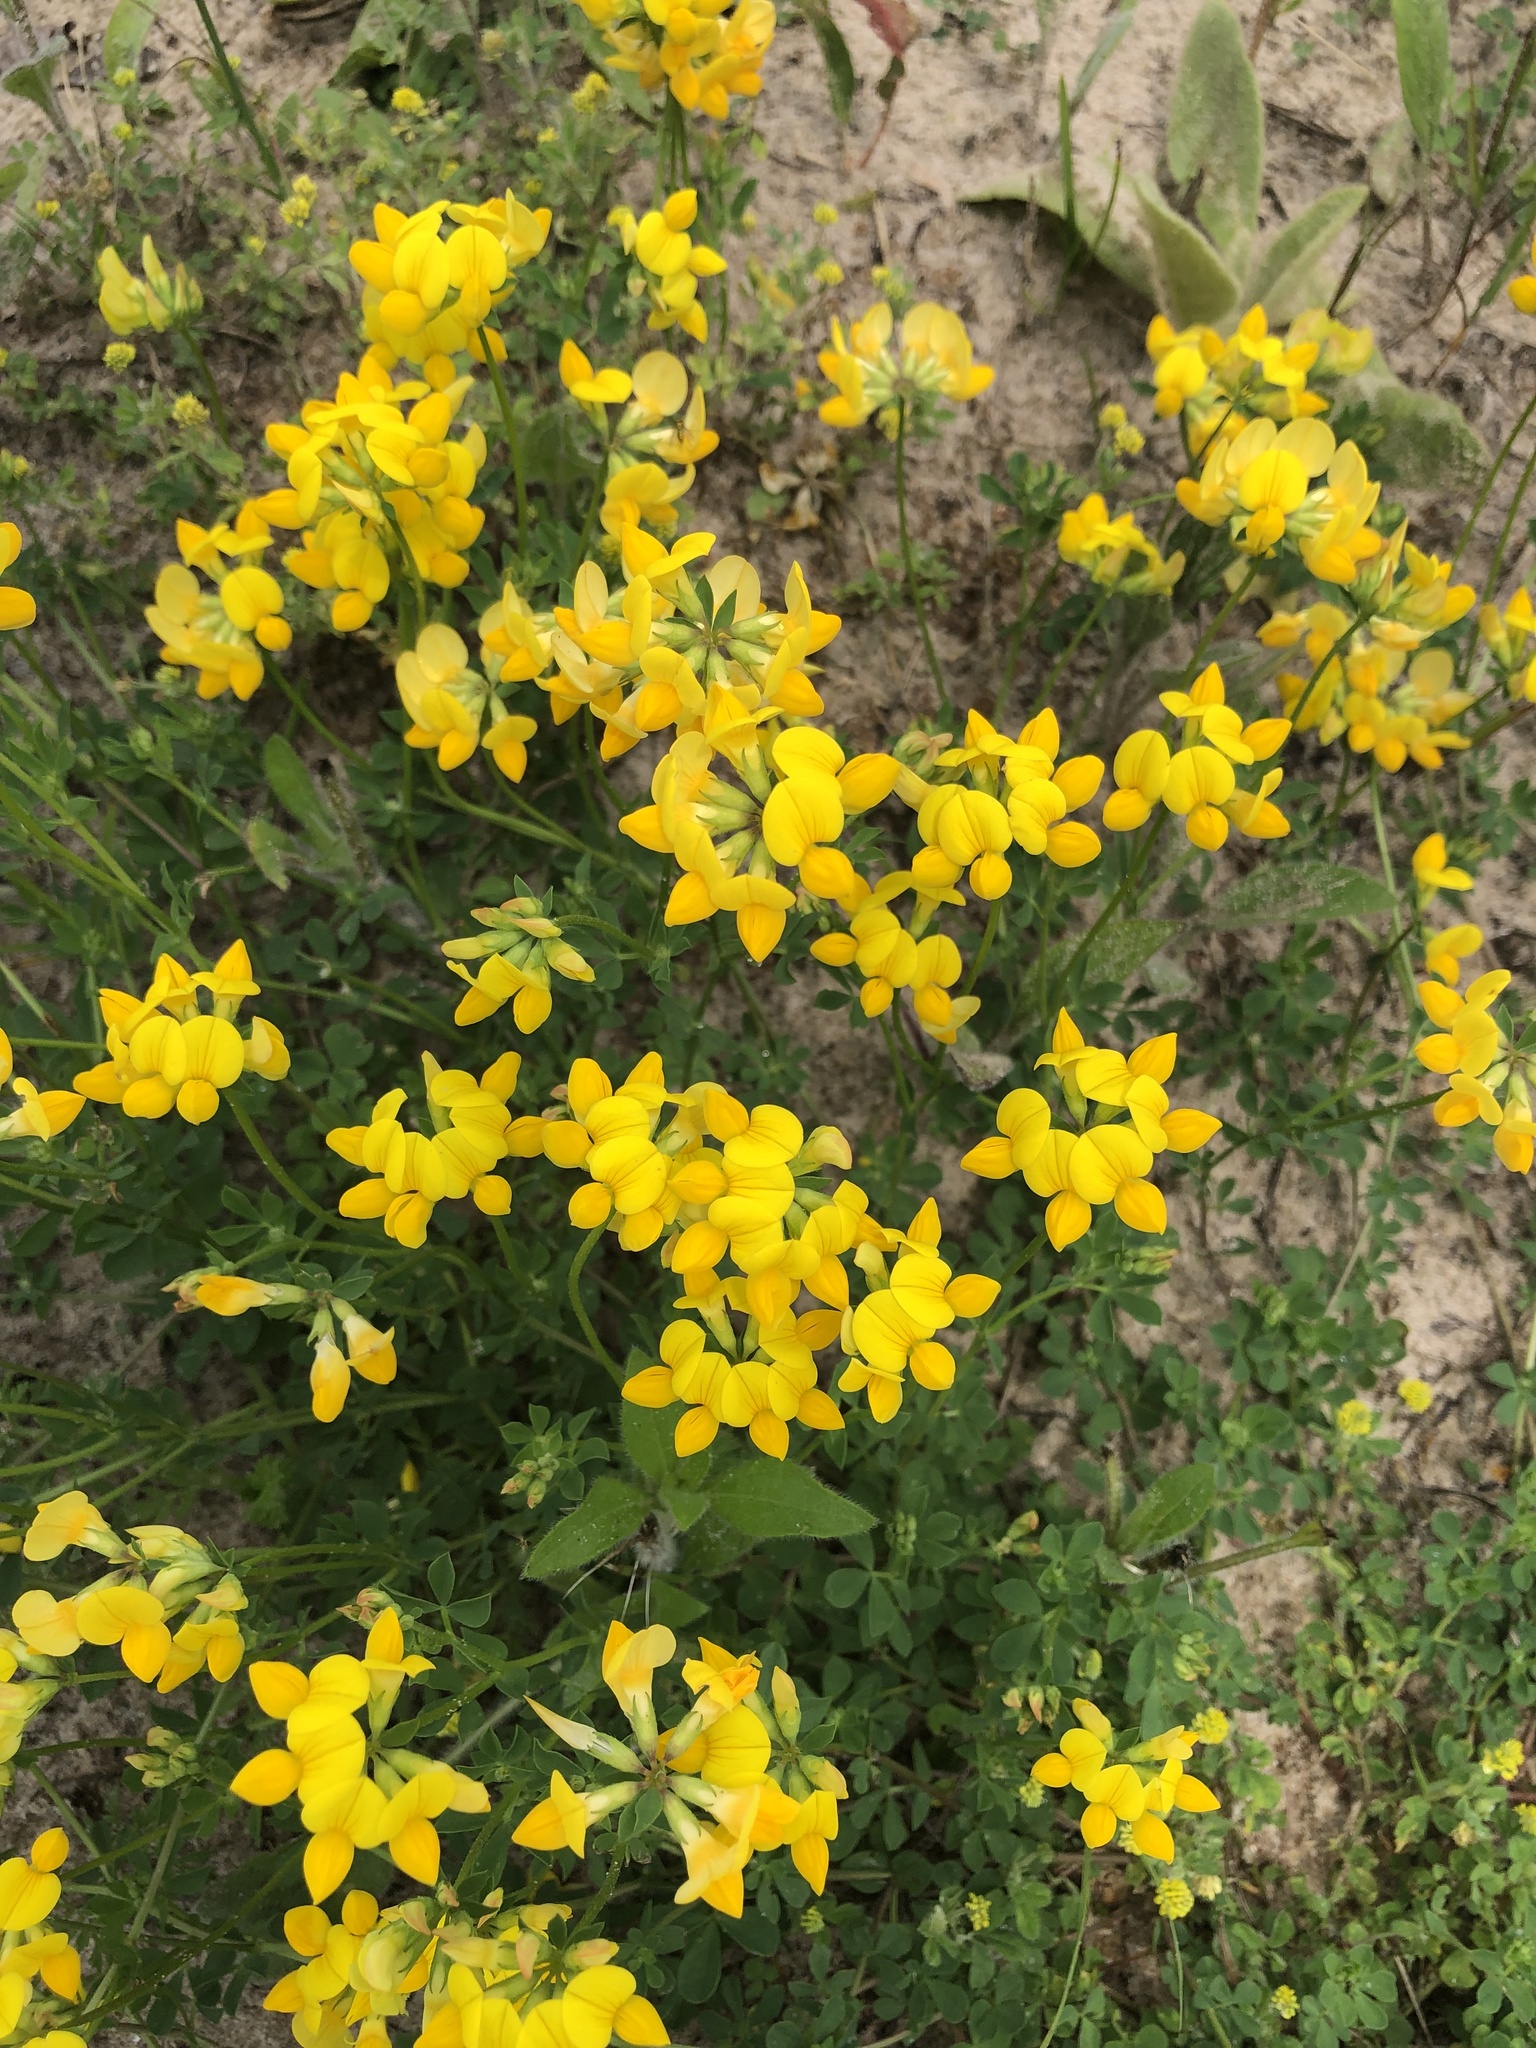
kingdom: Plantae
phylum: Tracheophyta
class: Magnoliopsida
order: Fabales
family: Fabaceae
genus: Lotus
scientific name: Lotus corniculatus
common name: Common bird's-foot-trefoil
